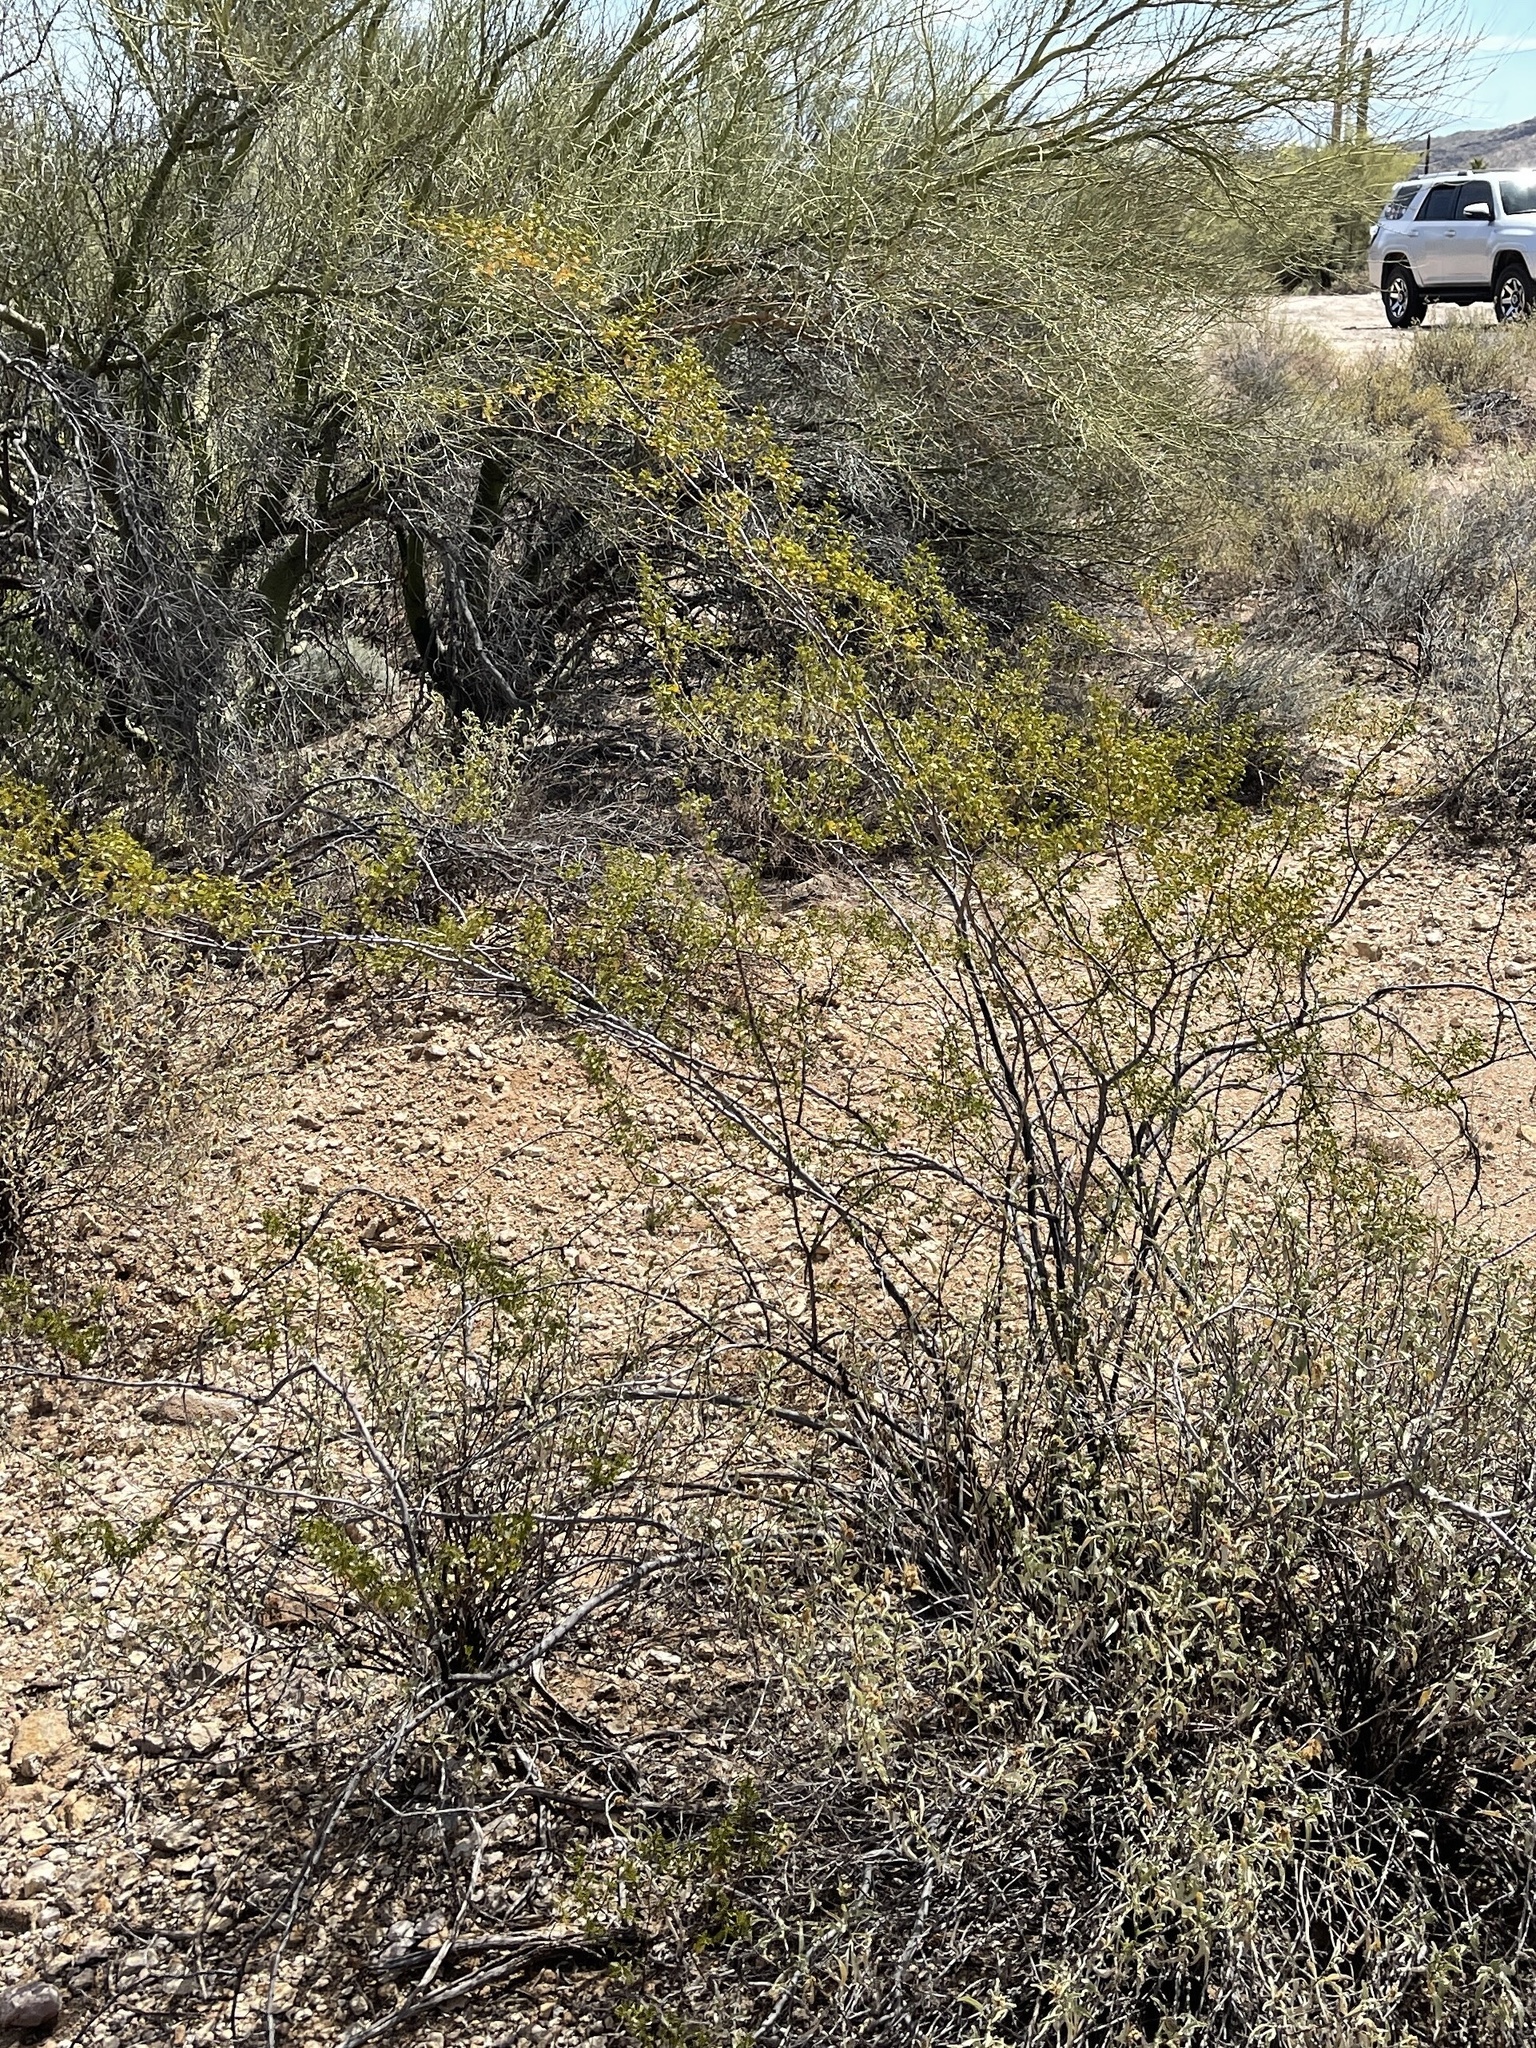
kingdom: Plantae
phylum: Tracheophyta
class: Magnoliopsida
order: Zygophyllales
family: Zygophyllaceae
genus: Larrea
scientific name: Larrea tridentata
